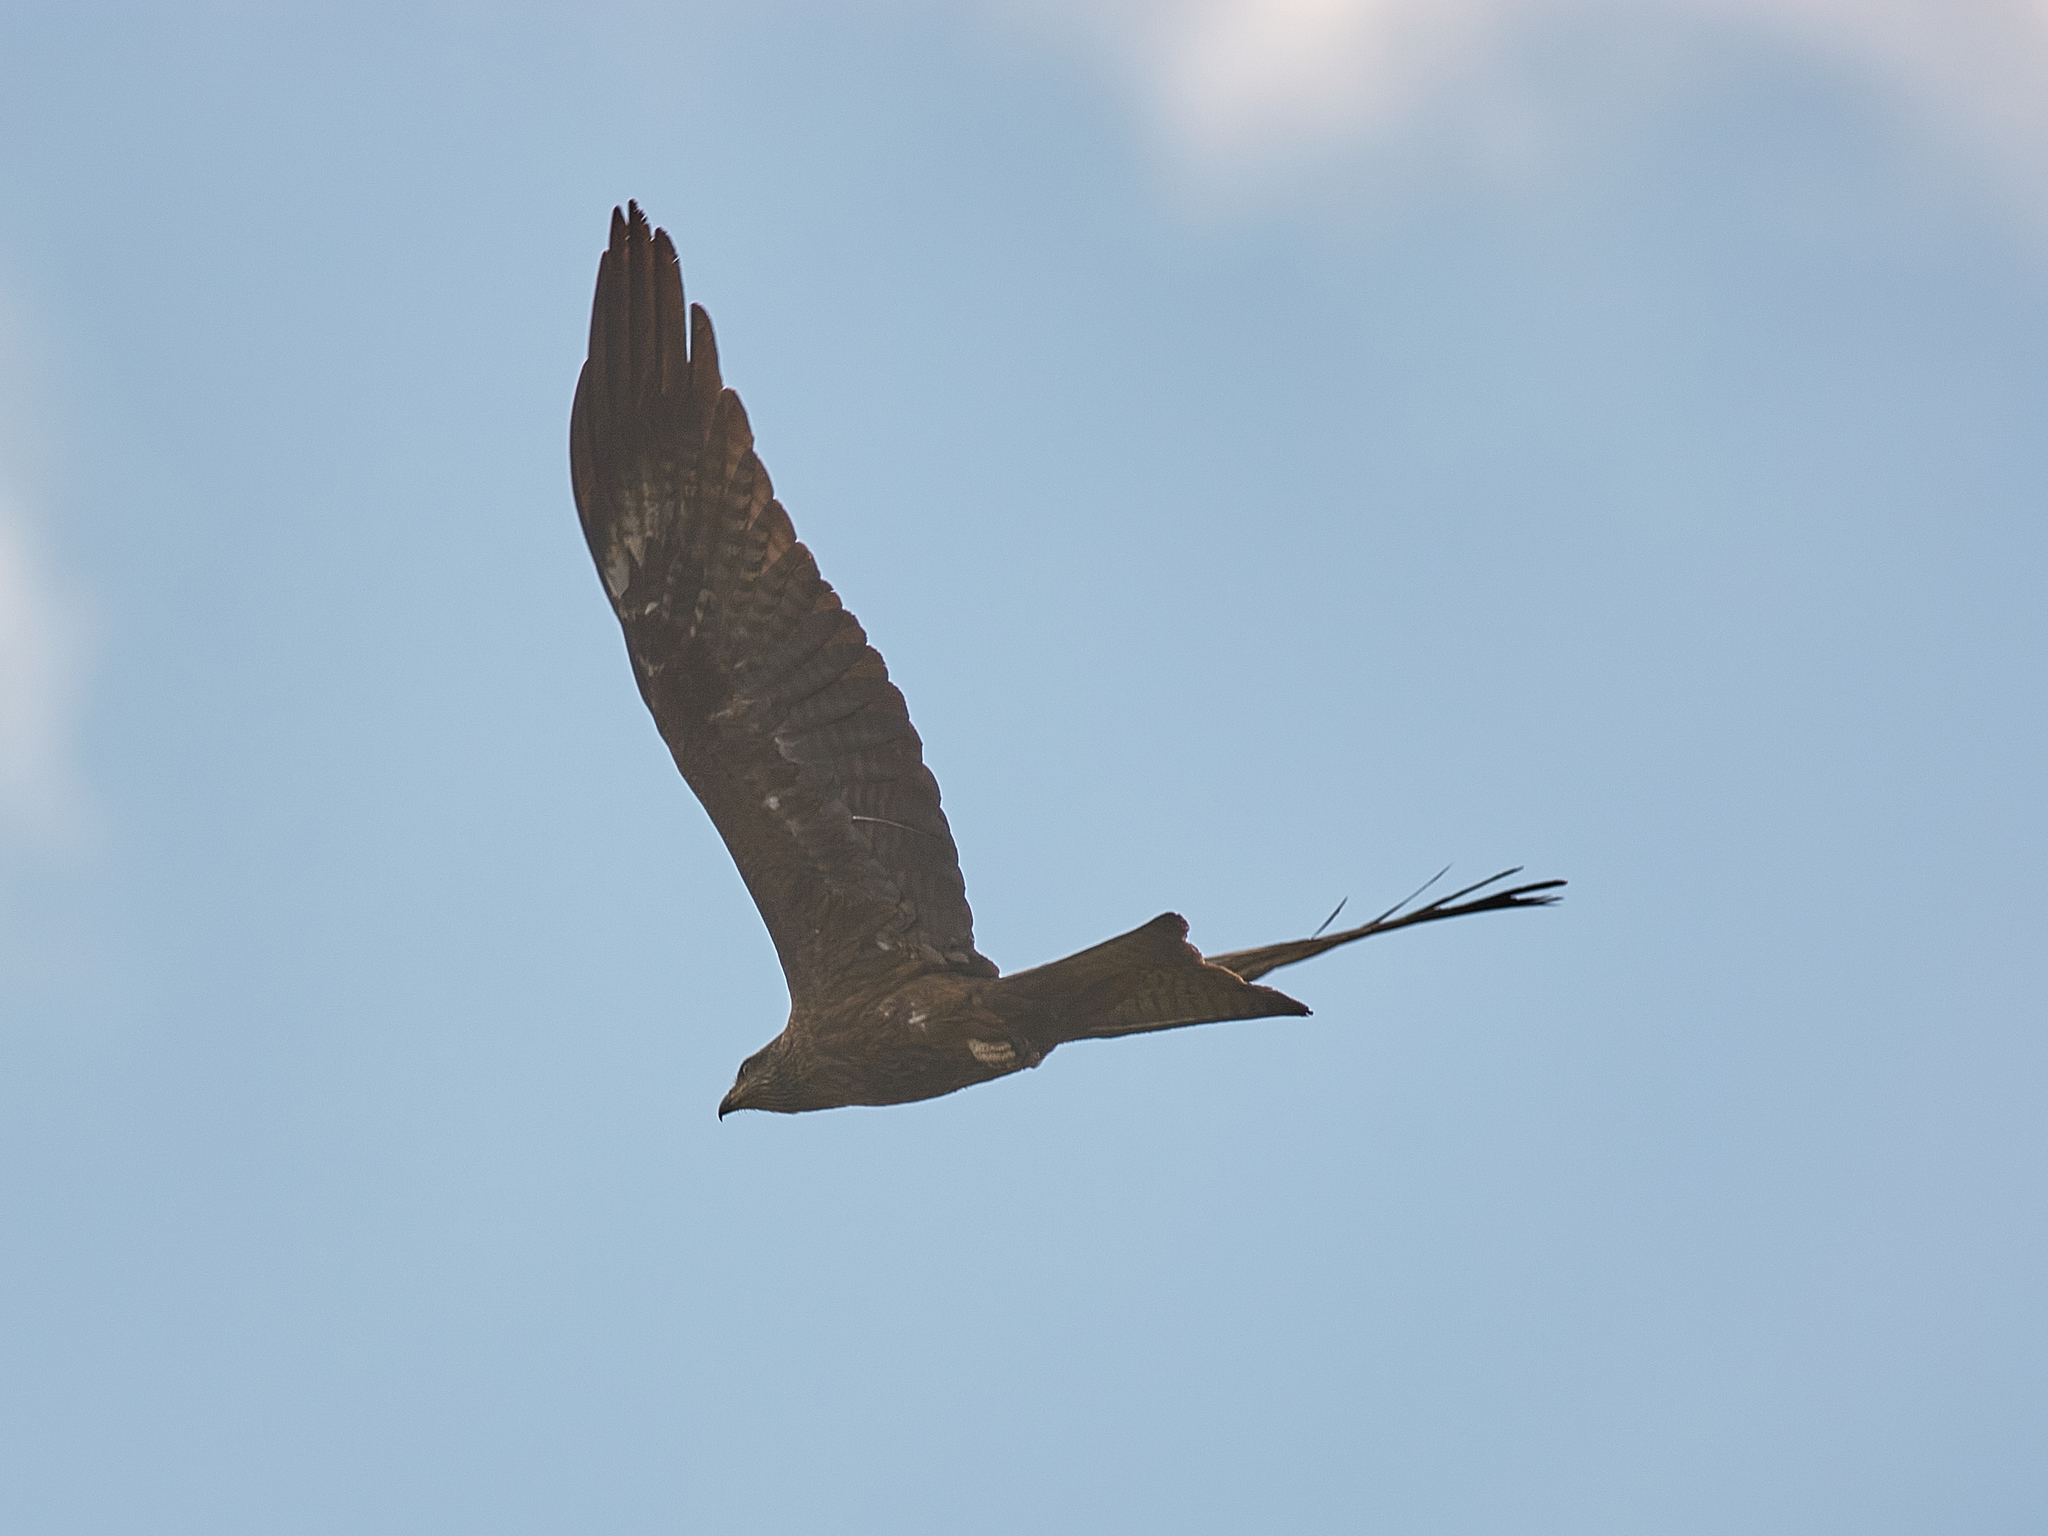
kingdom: Animalia
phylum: Chordata
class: Aves
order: Accipitriformes
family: Accipitridae
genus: Milvus
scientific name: Milvus migrans
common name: Black kite
